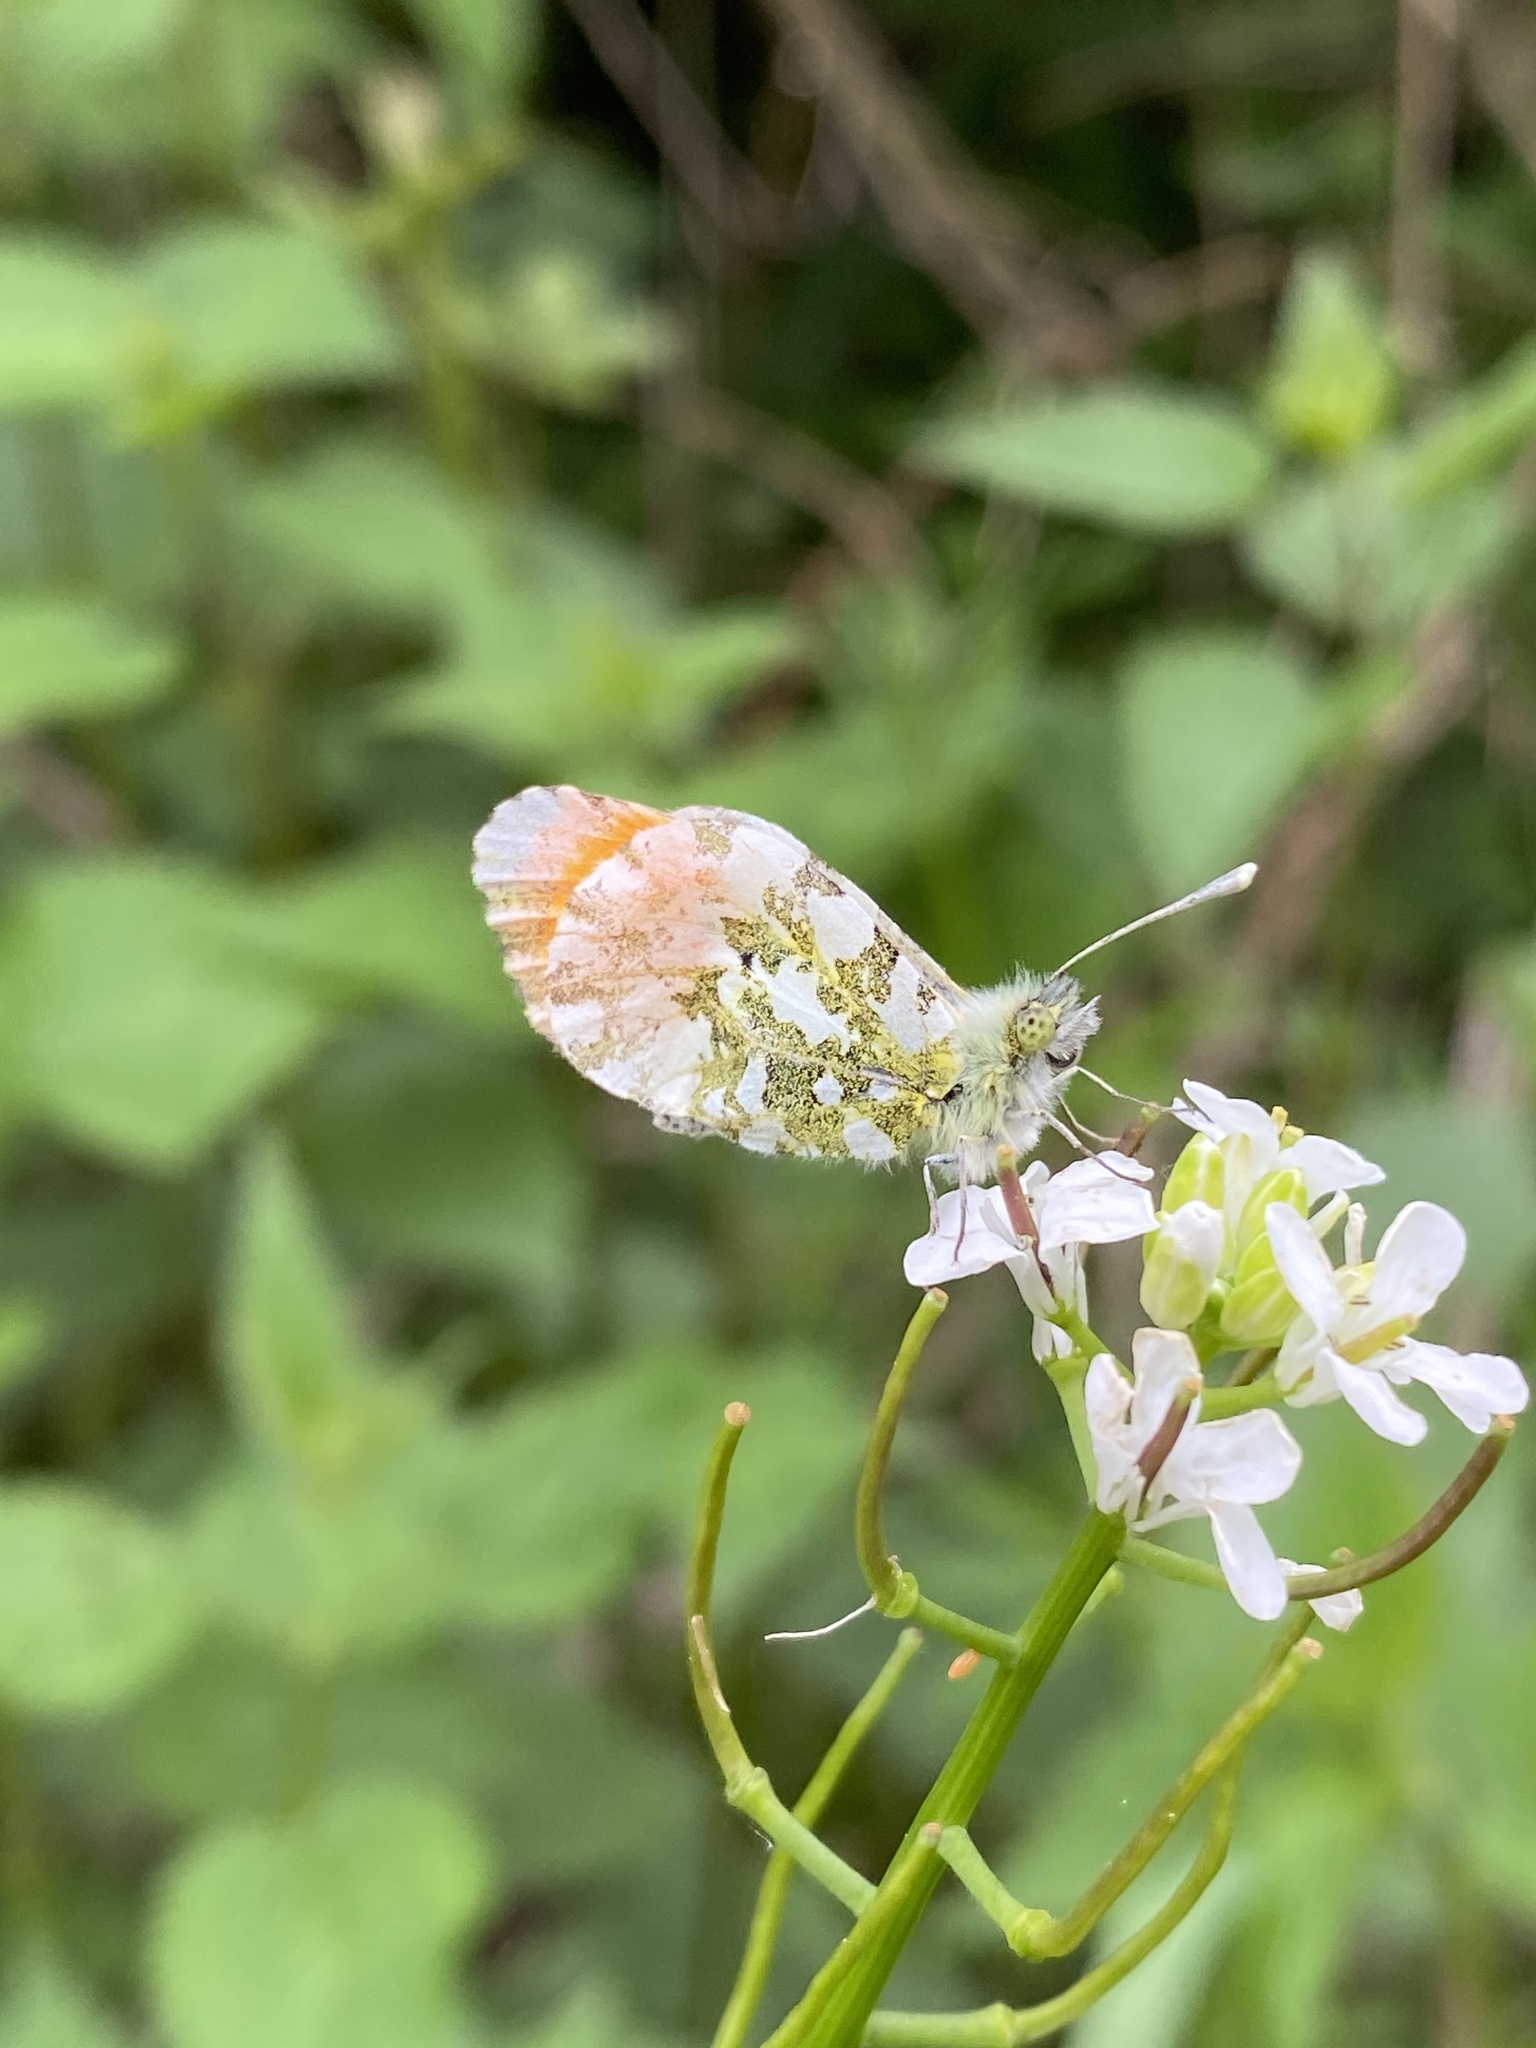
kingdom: Animalia
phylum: Arthropoda
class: Insecta
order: Lepidoptera
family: Pieridae
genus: Anthocharis
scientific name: Anthocharis cardamines
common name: Orange-tip
